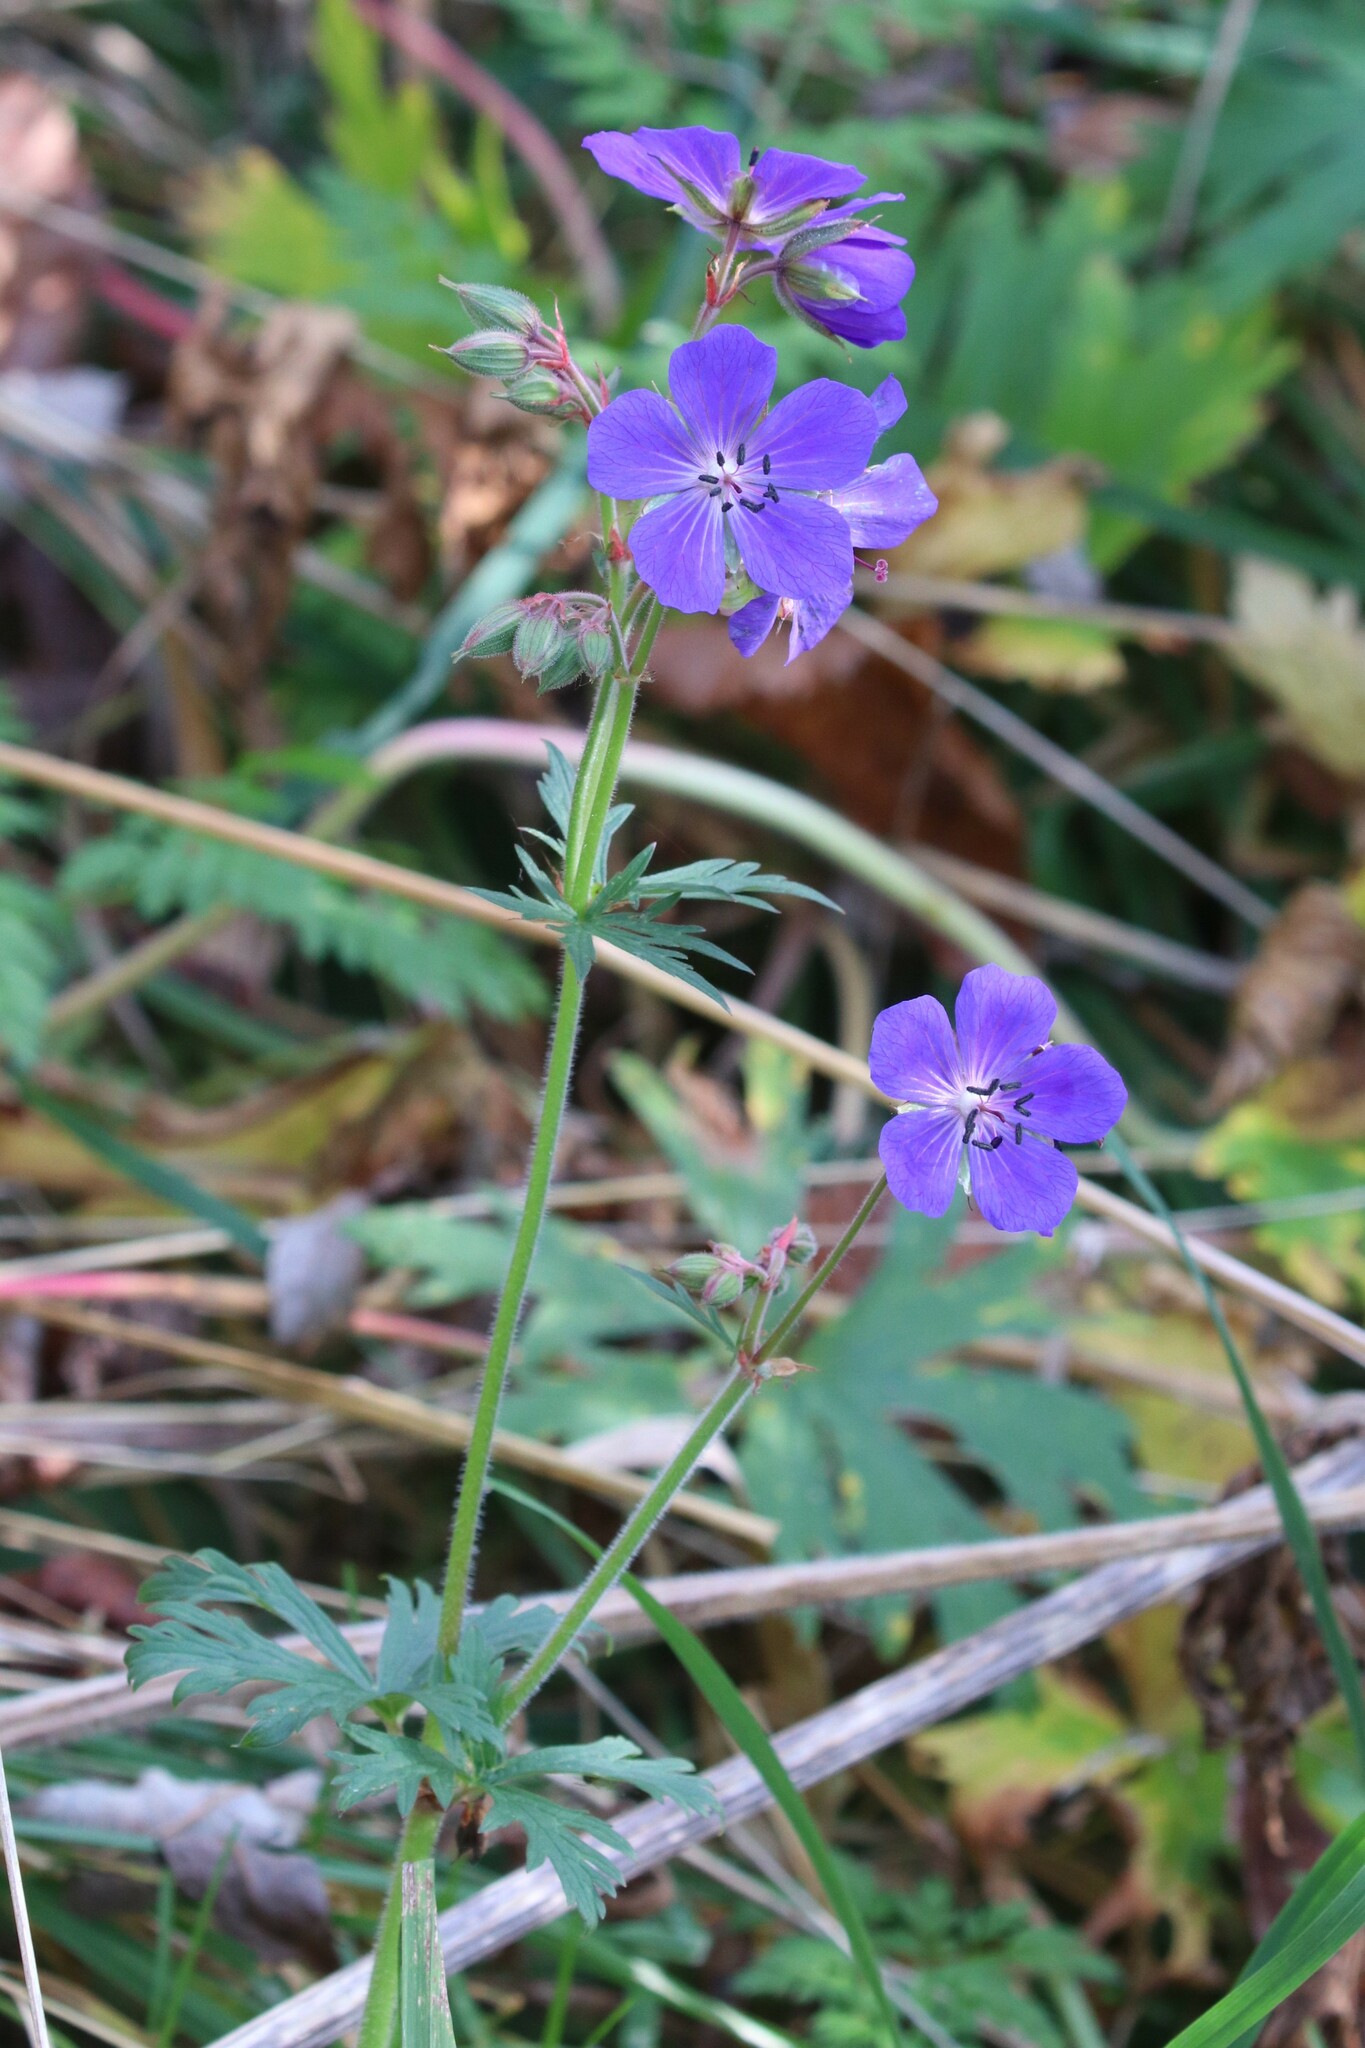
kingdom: Plantae
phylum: Tracheophyta
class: Magnoliopsida
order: Geraniales
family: Geraniaceae
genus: Geranium
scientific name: Geranium pratense
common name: Meadow crane's-bill
